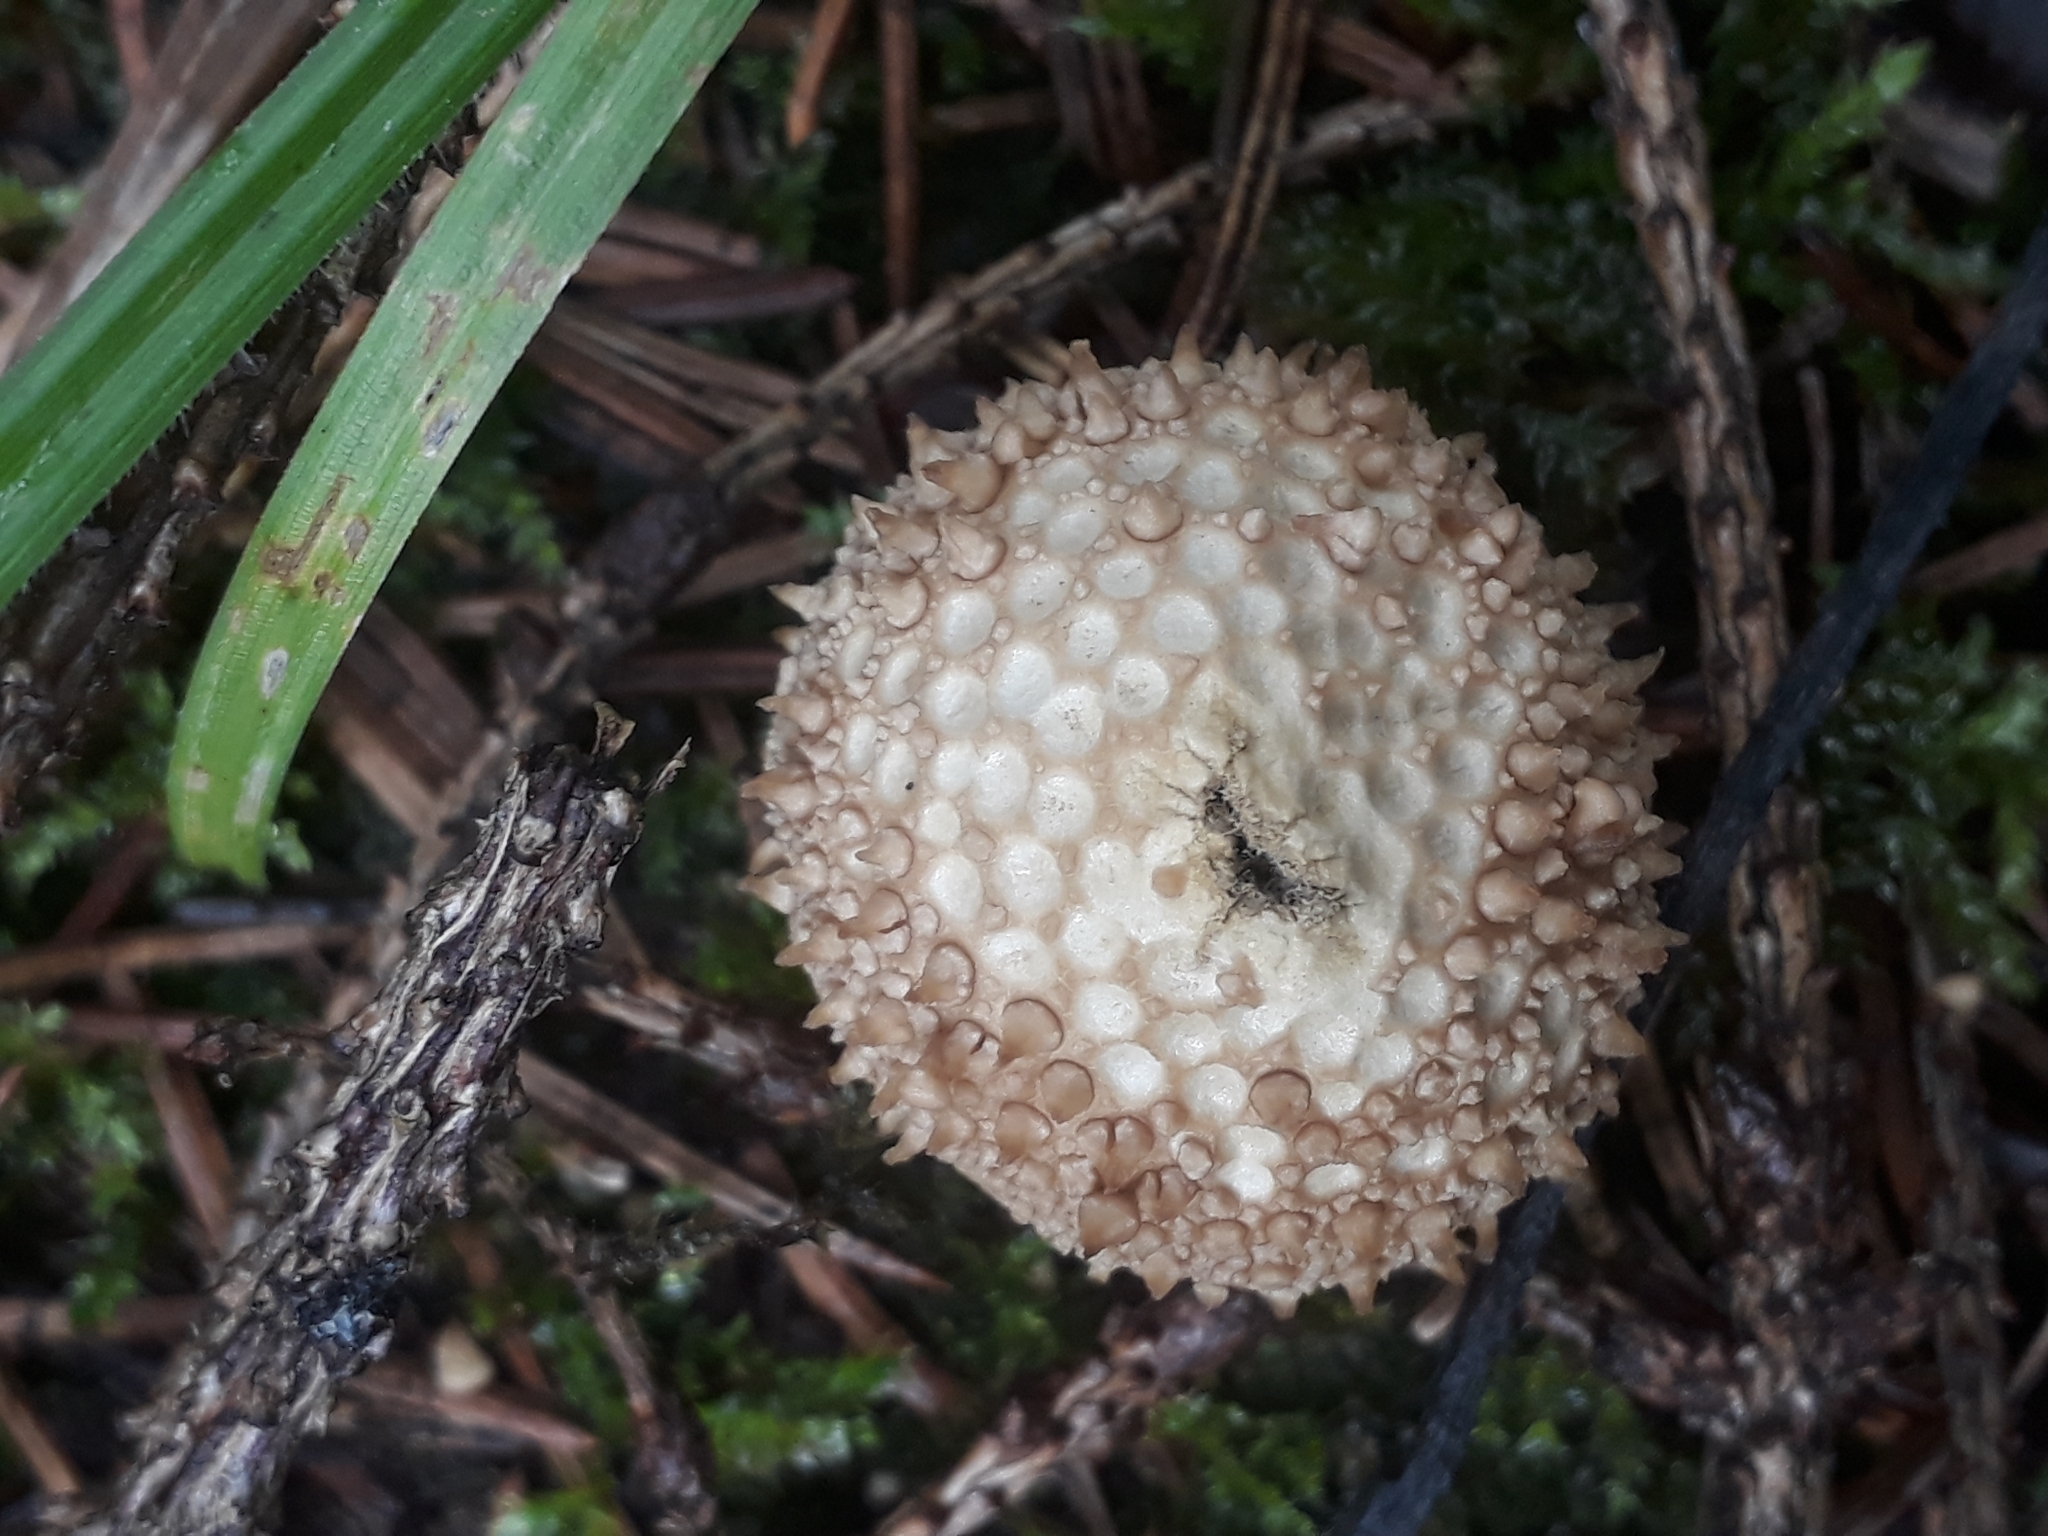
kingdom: Fungi
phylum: Basidiomycota
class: Agaricomycetes
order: Agaricales
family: Lycoperdaceae
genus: Lycoperdon
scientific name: Lycoperdon perlatum
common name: Common puffball
